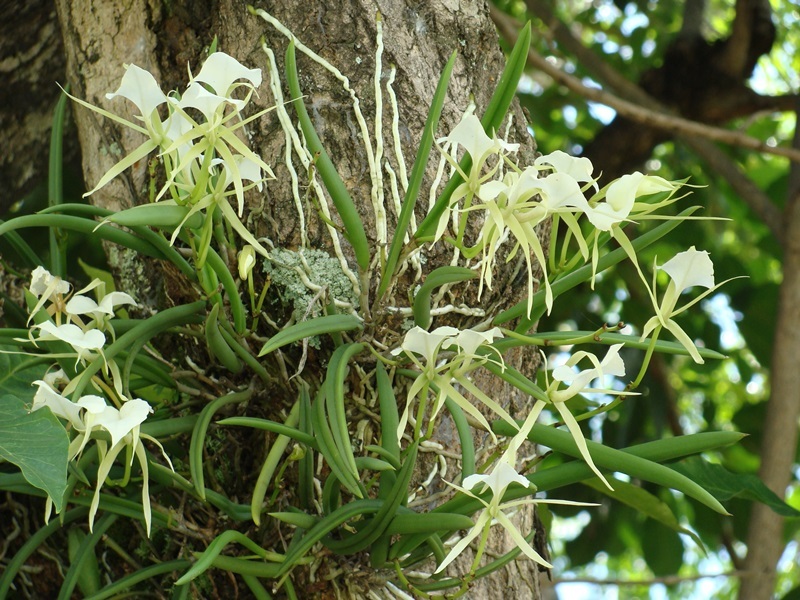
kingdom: Plantae
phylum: Tracheophyta
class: Liliopsida
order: Asparagales
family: Orchidaceae
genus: Brassavola
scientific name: Brassavola nodosa
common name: Lady of the night
